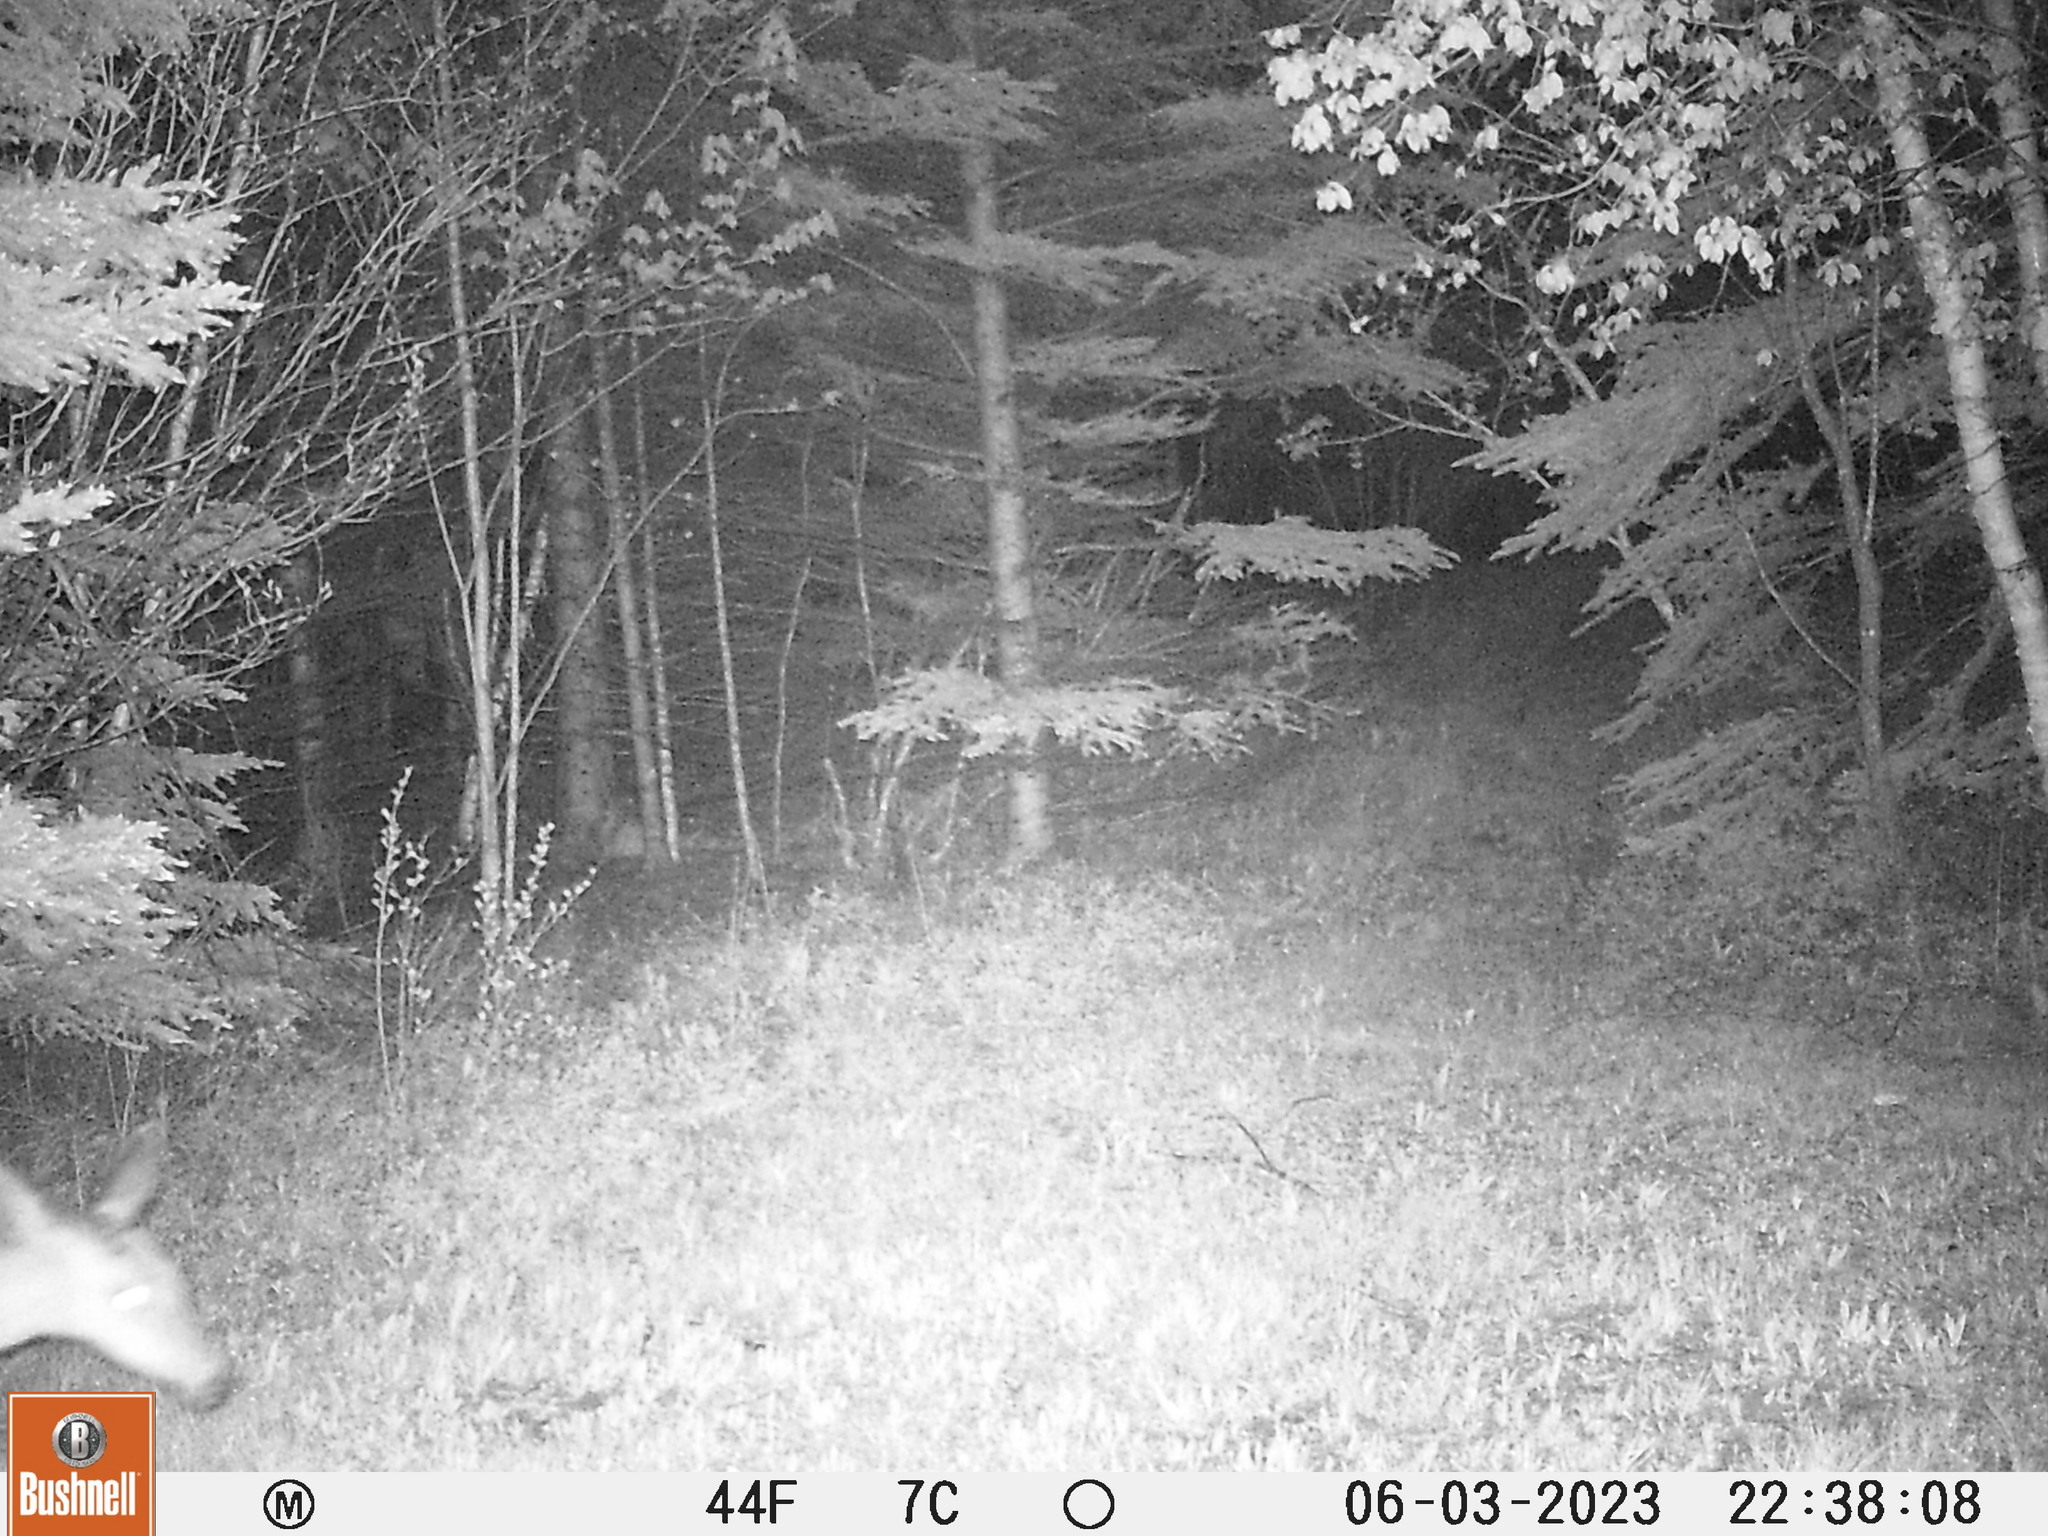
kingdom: Animalia
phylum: Chordata
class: Mammalia
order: Artiodactyla
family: Cervidae
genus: Odocoileus
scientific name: Odocoileus virginianus
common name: White-tailed deer
